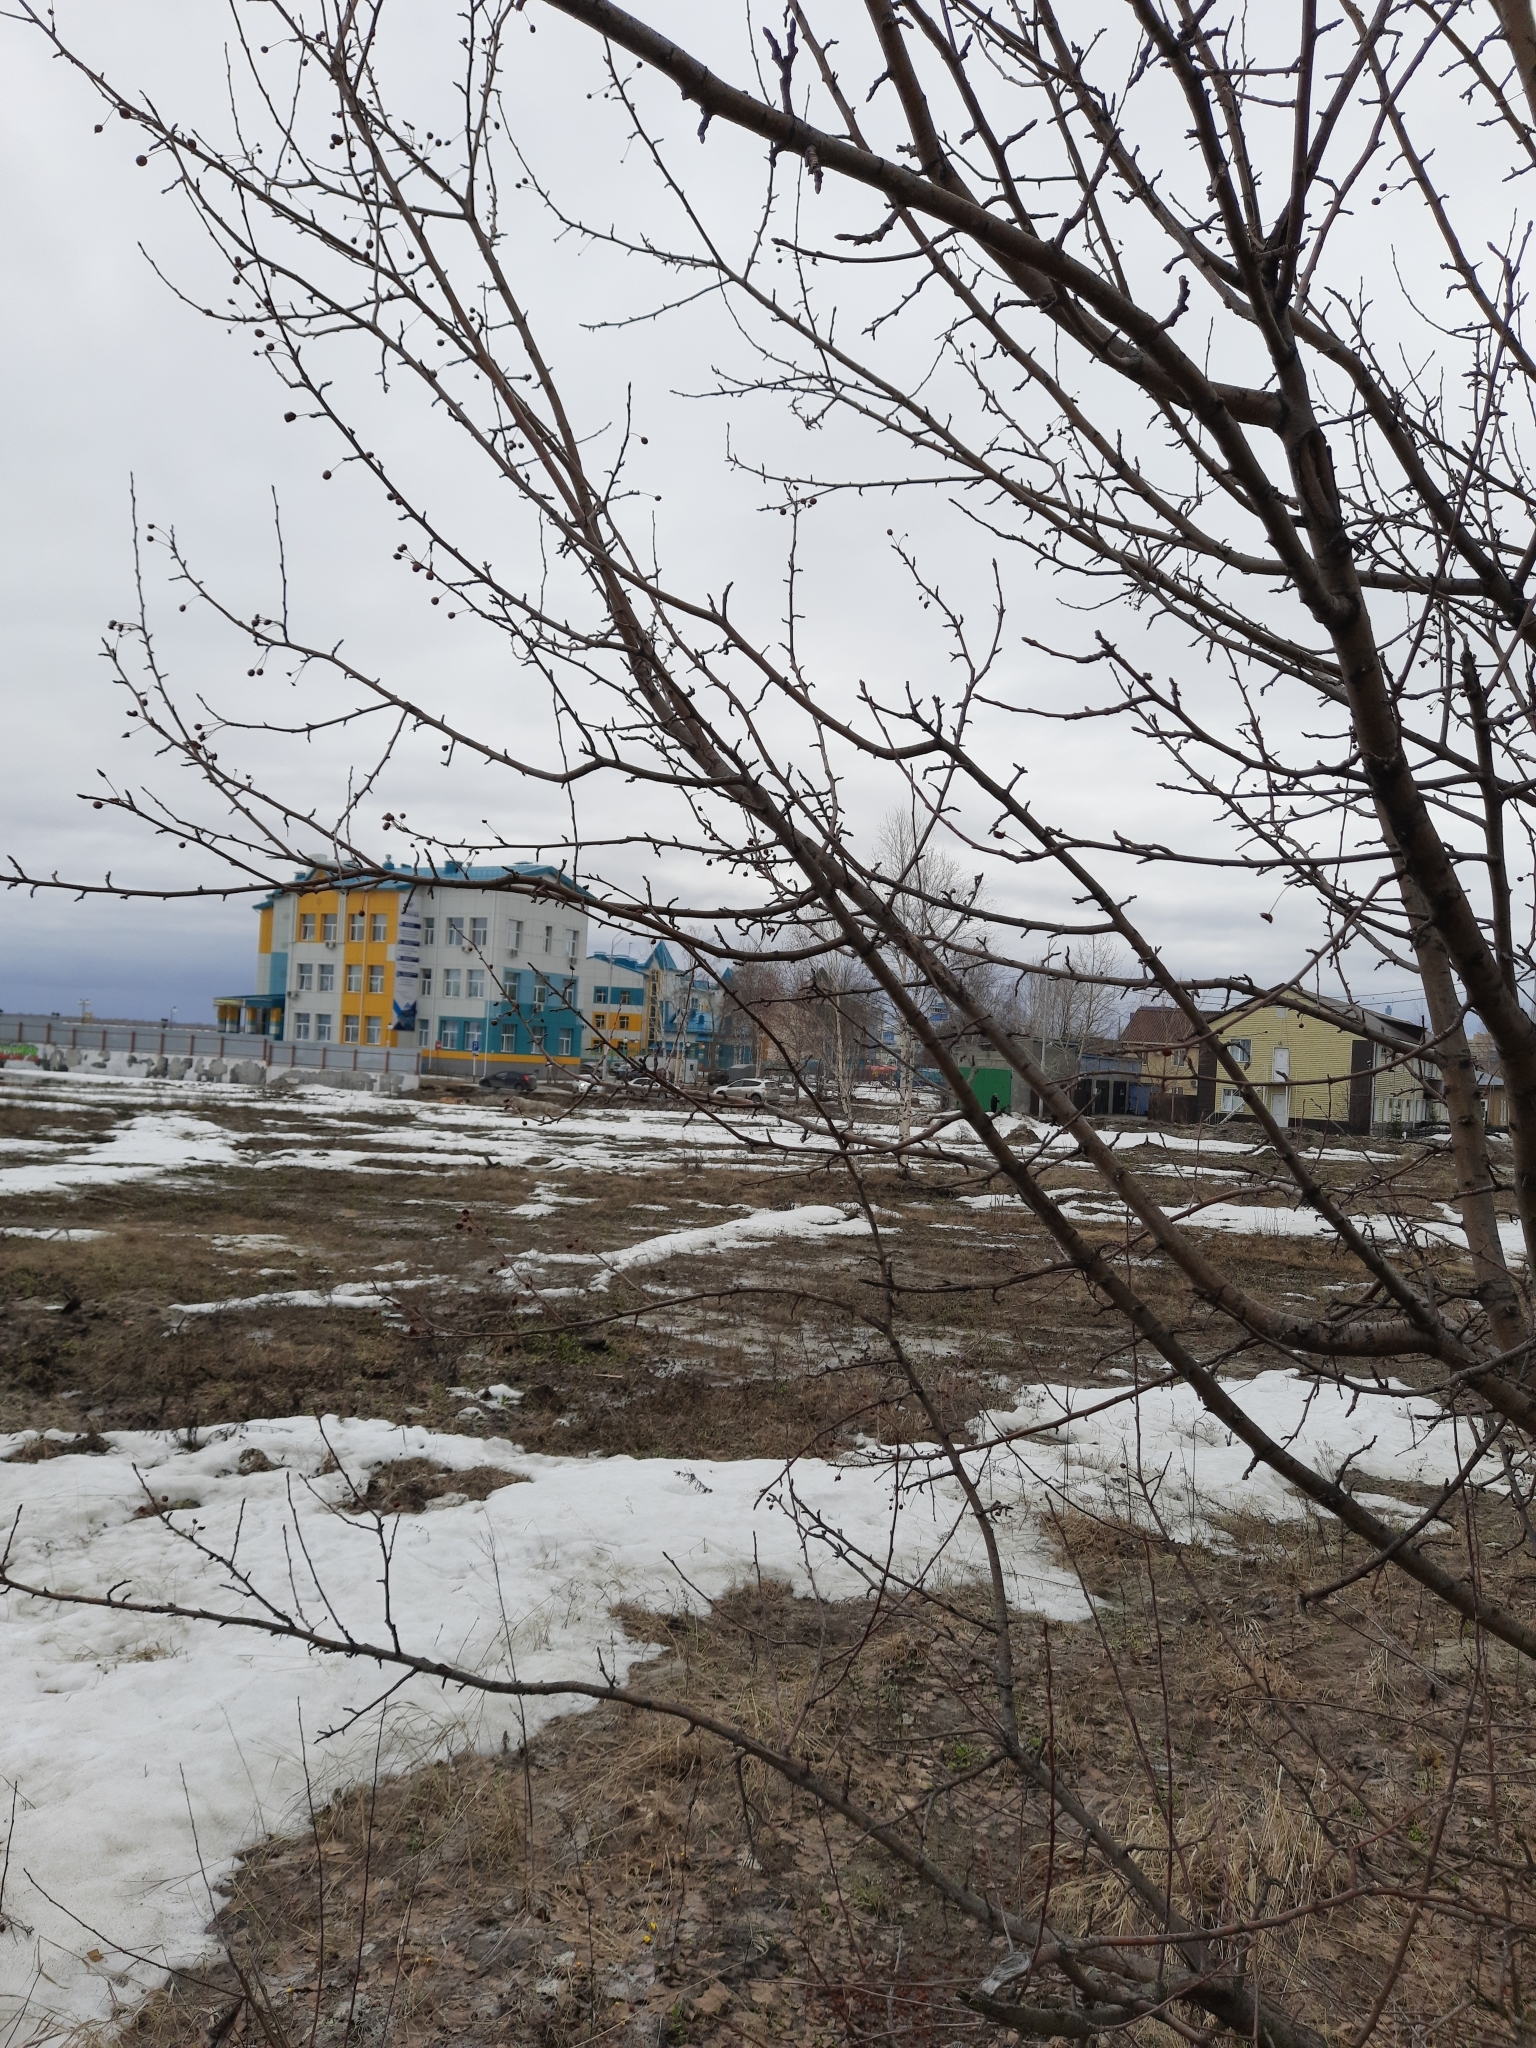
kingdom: Plantae
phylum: Tracheophyta
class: Magnoliopsida
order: Rosales
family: Rosaceae
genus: Malus
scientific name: Malus baccata
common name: Siberian crab
